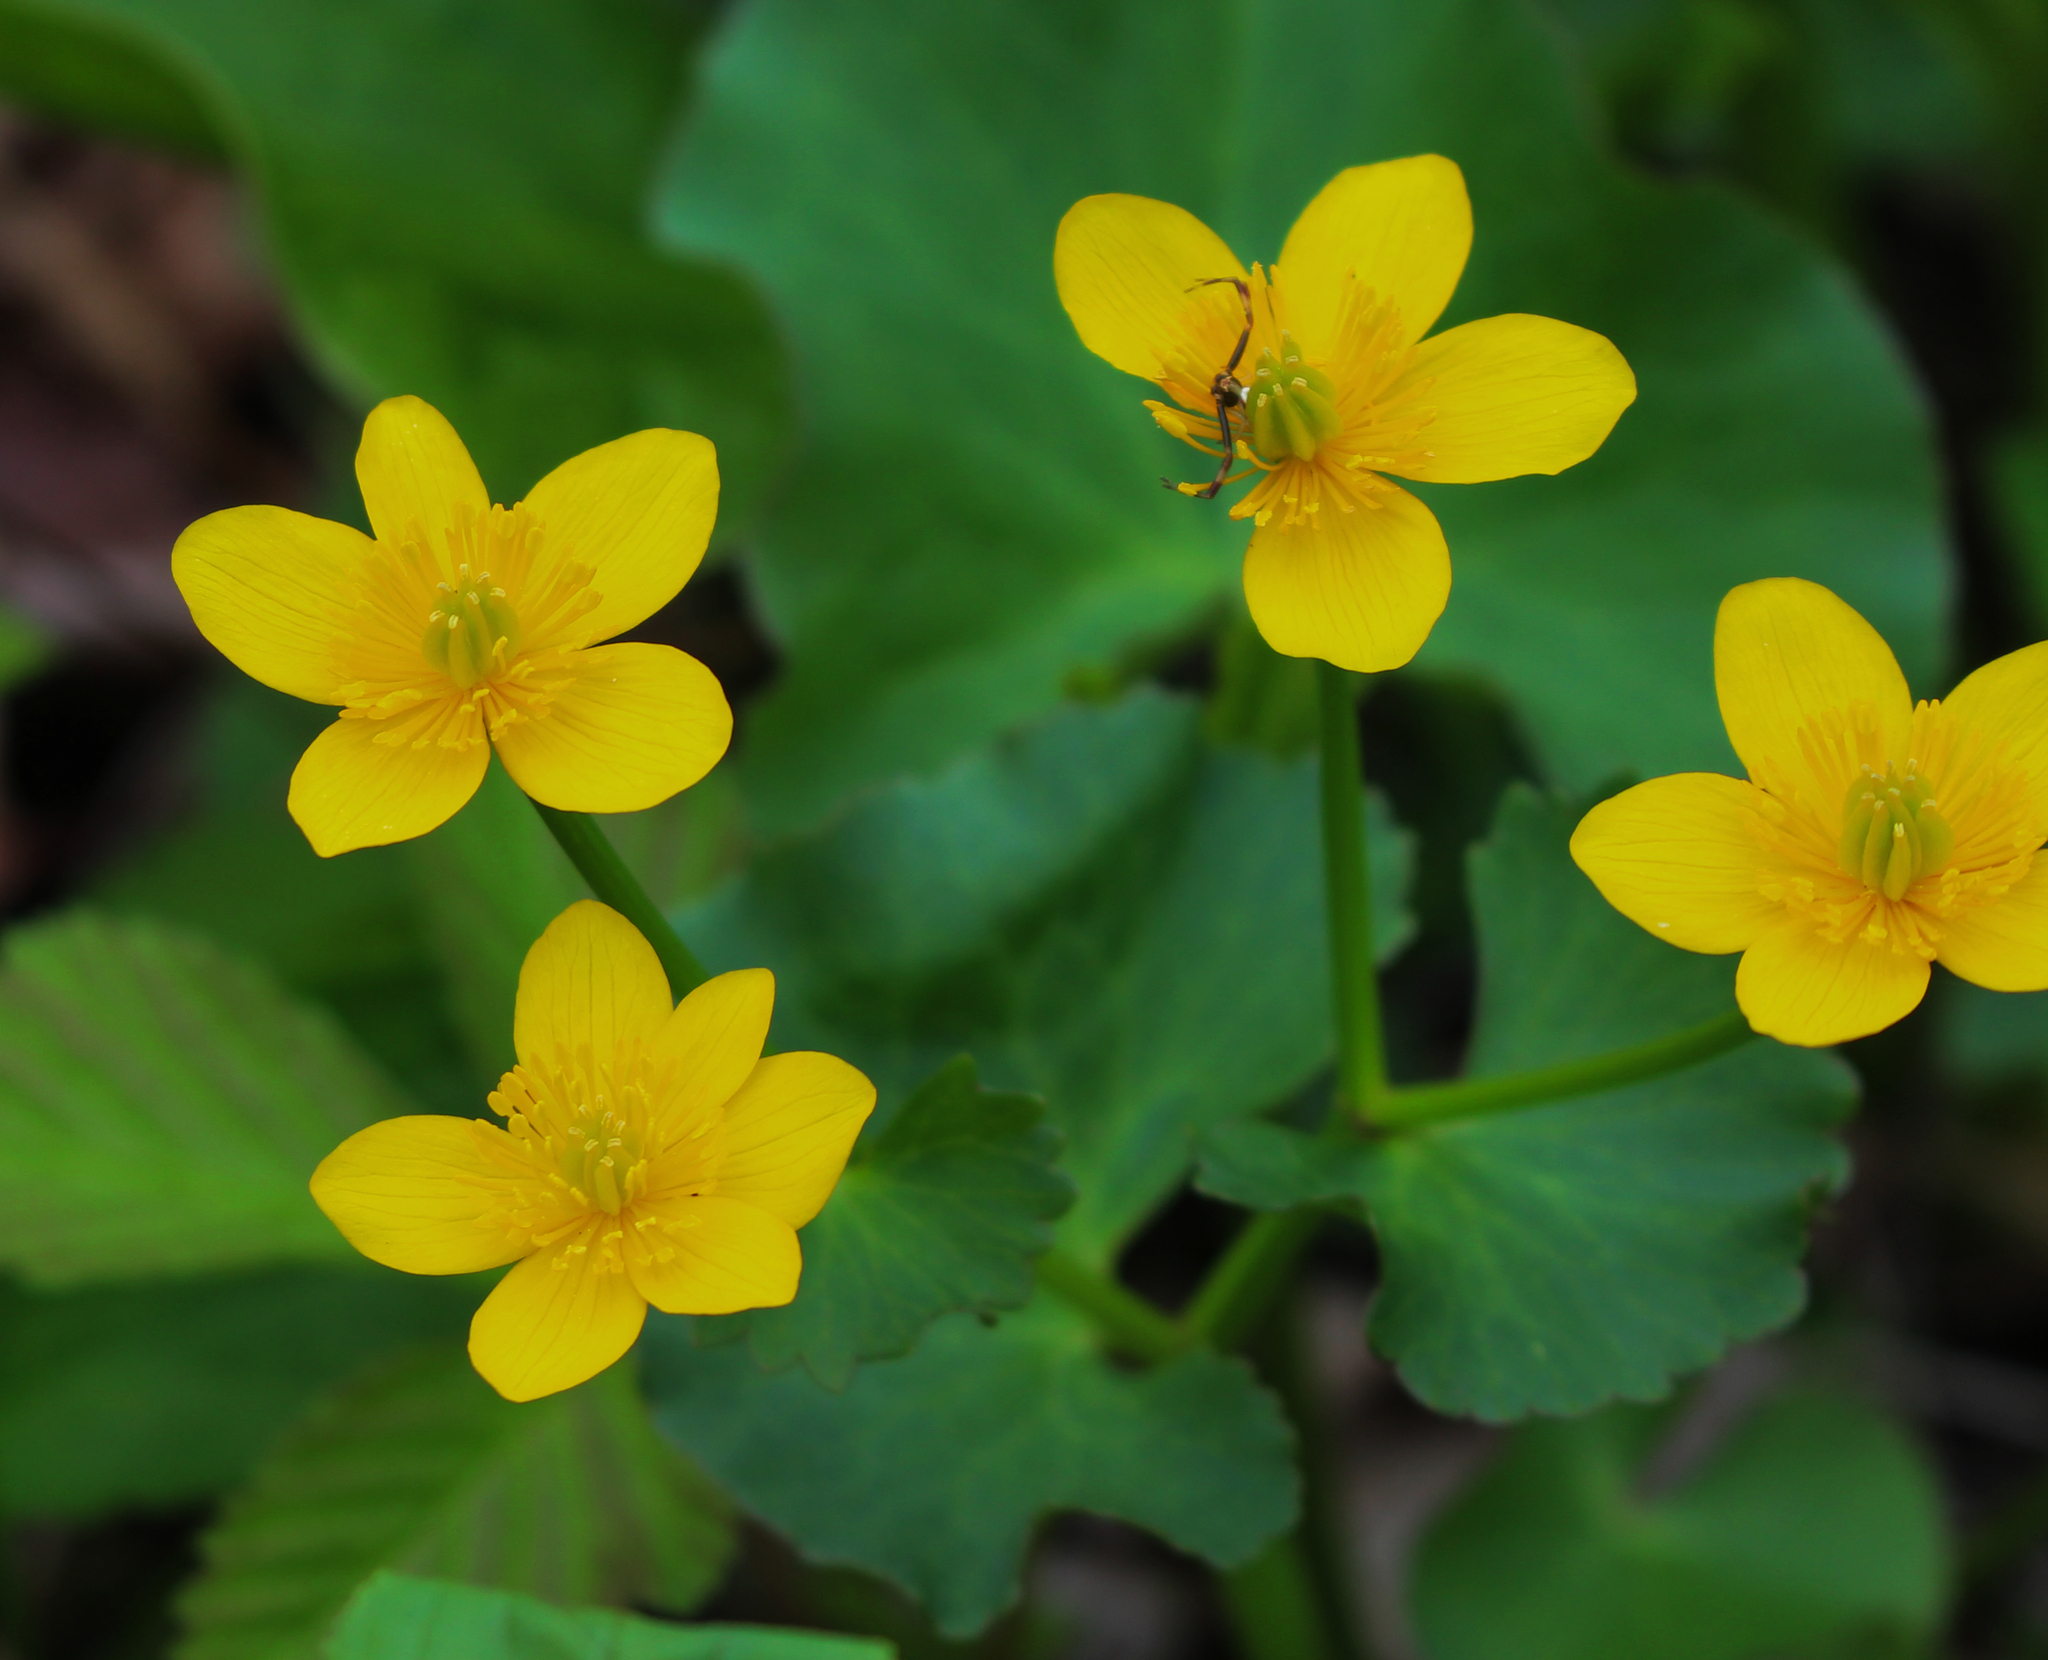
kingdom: Plantae
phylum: Tracheophyta
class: Magnoliopsida
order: Ranunculales
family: Ranunculaceae
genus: Caltha
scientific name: Caltha palustris
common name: Marsh marigold
